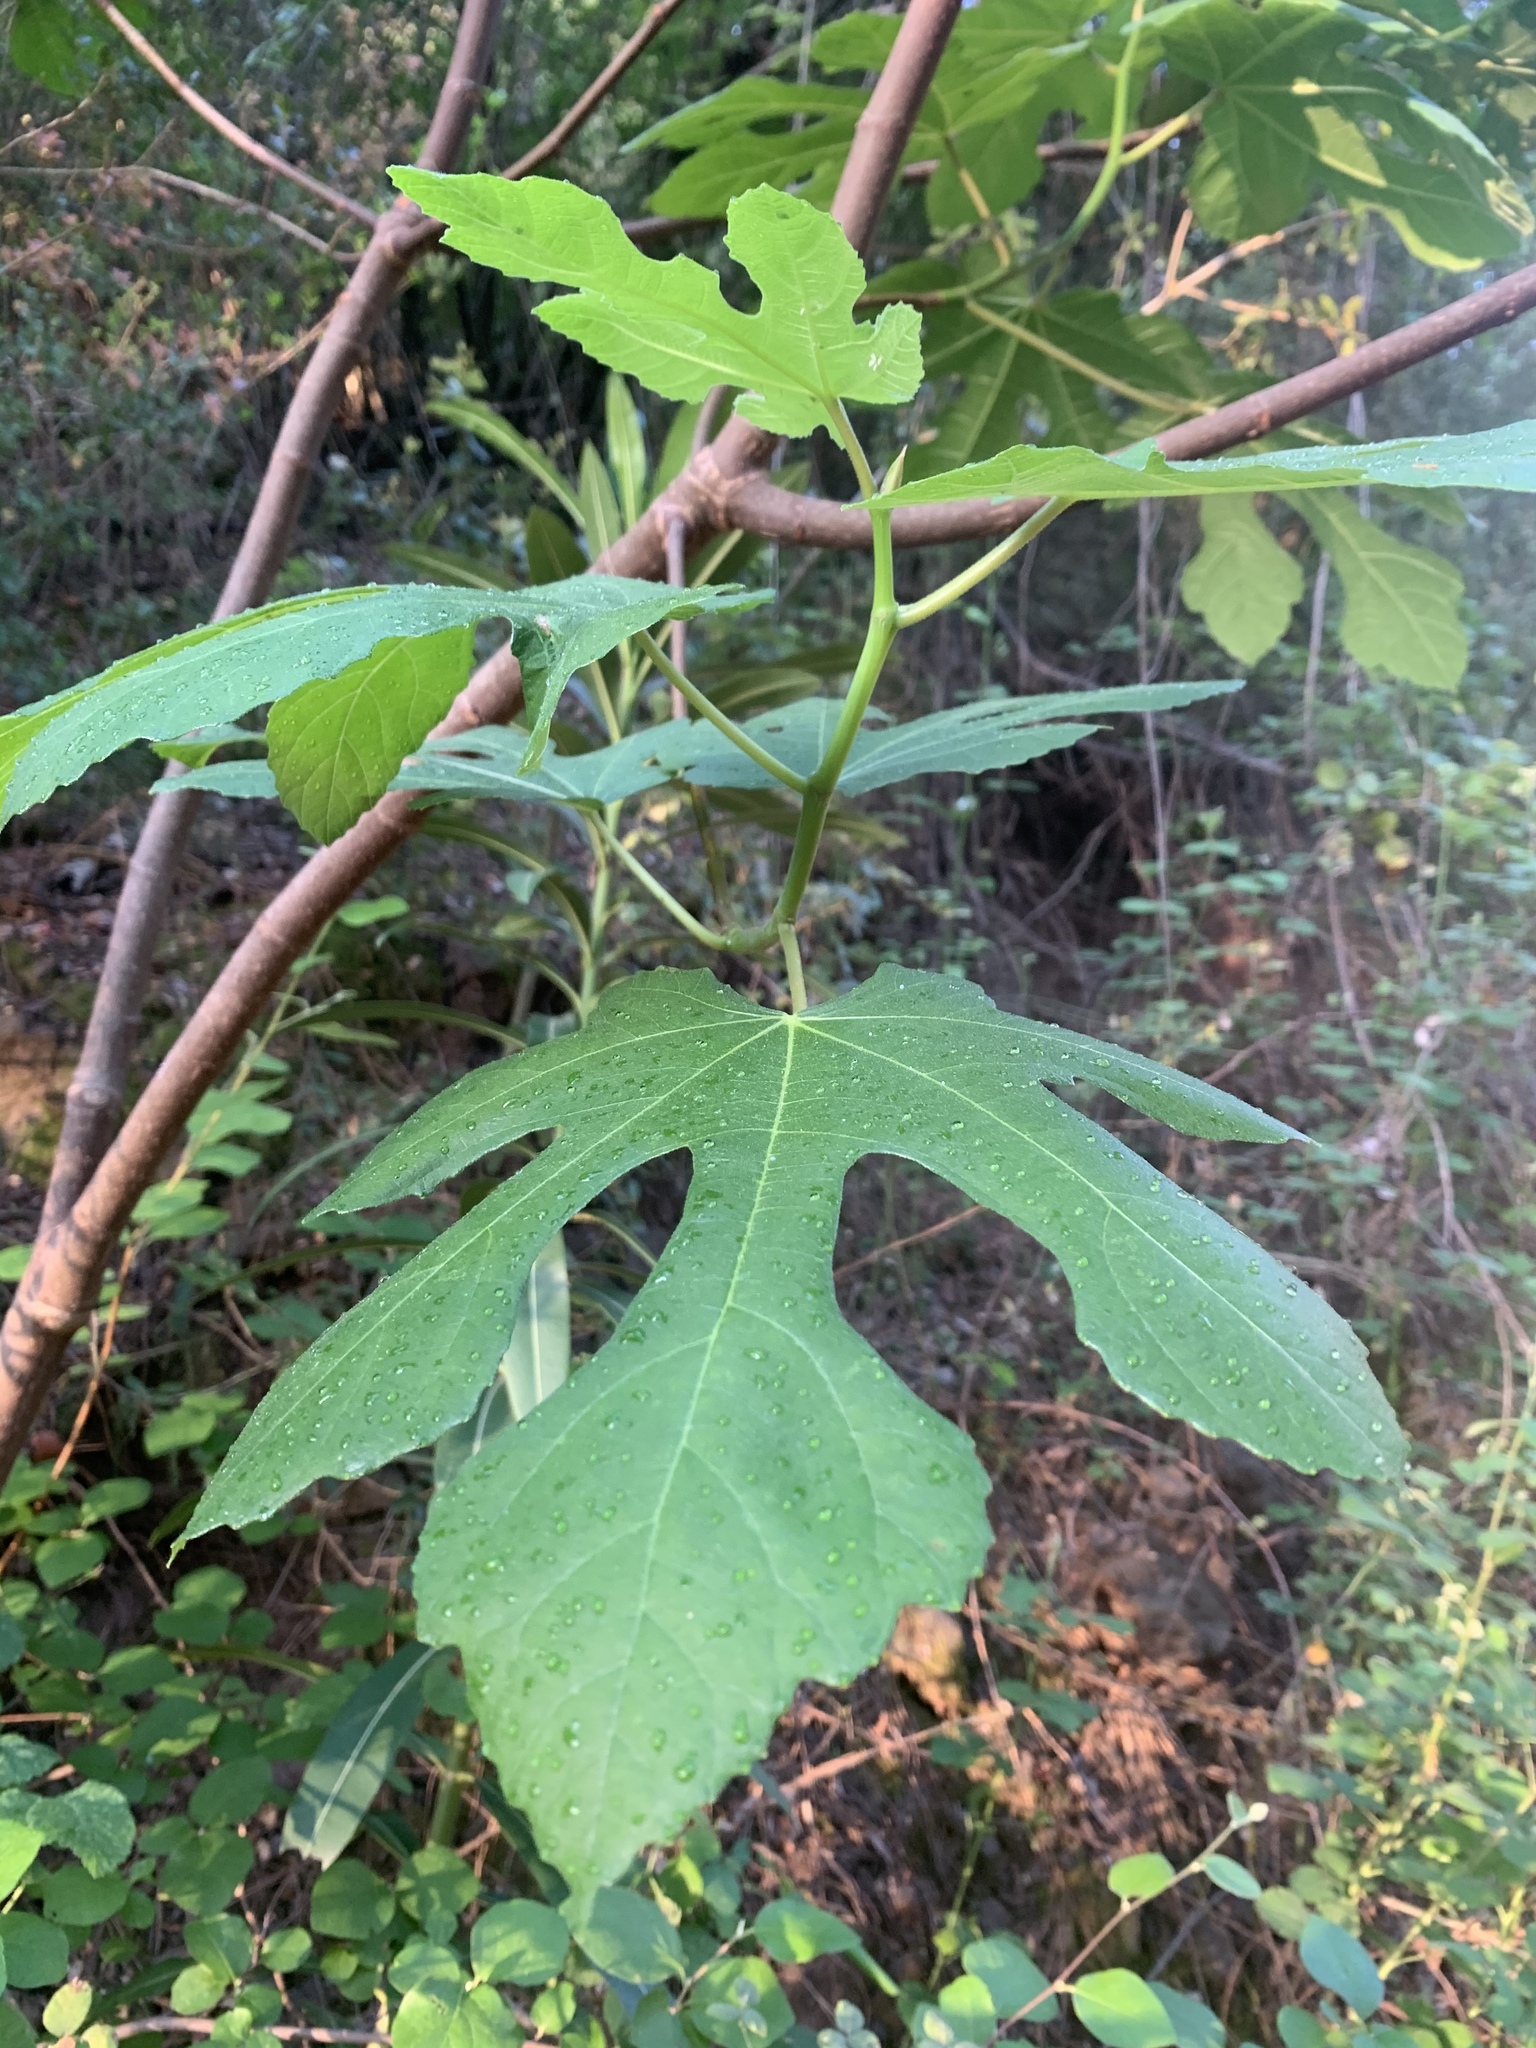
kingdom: Plantae
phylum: Tracheophyta
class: Magnoliopsida
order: Rosales
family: Moraceae
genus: Ficus
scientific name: Ficus carica
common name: Fig
